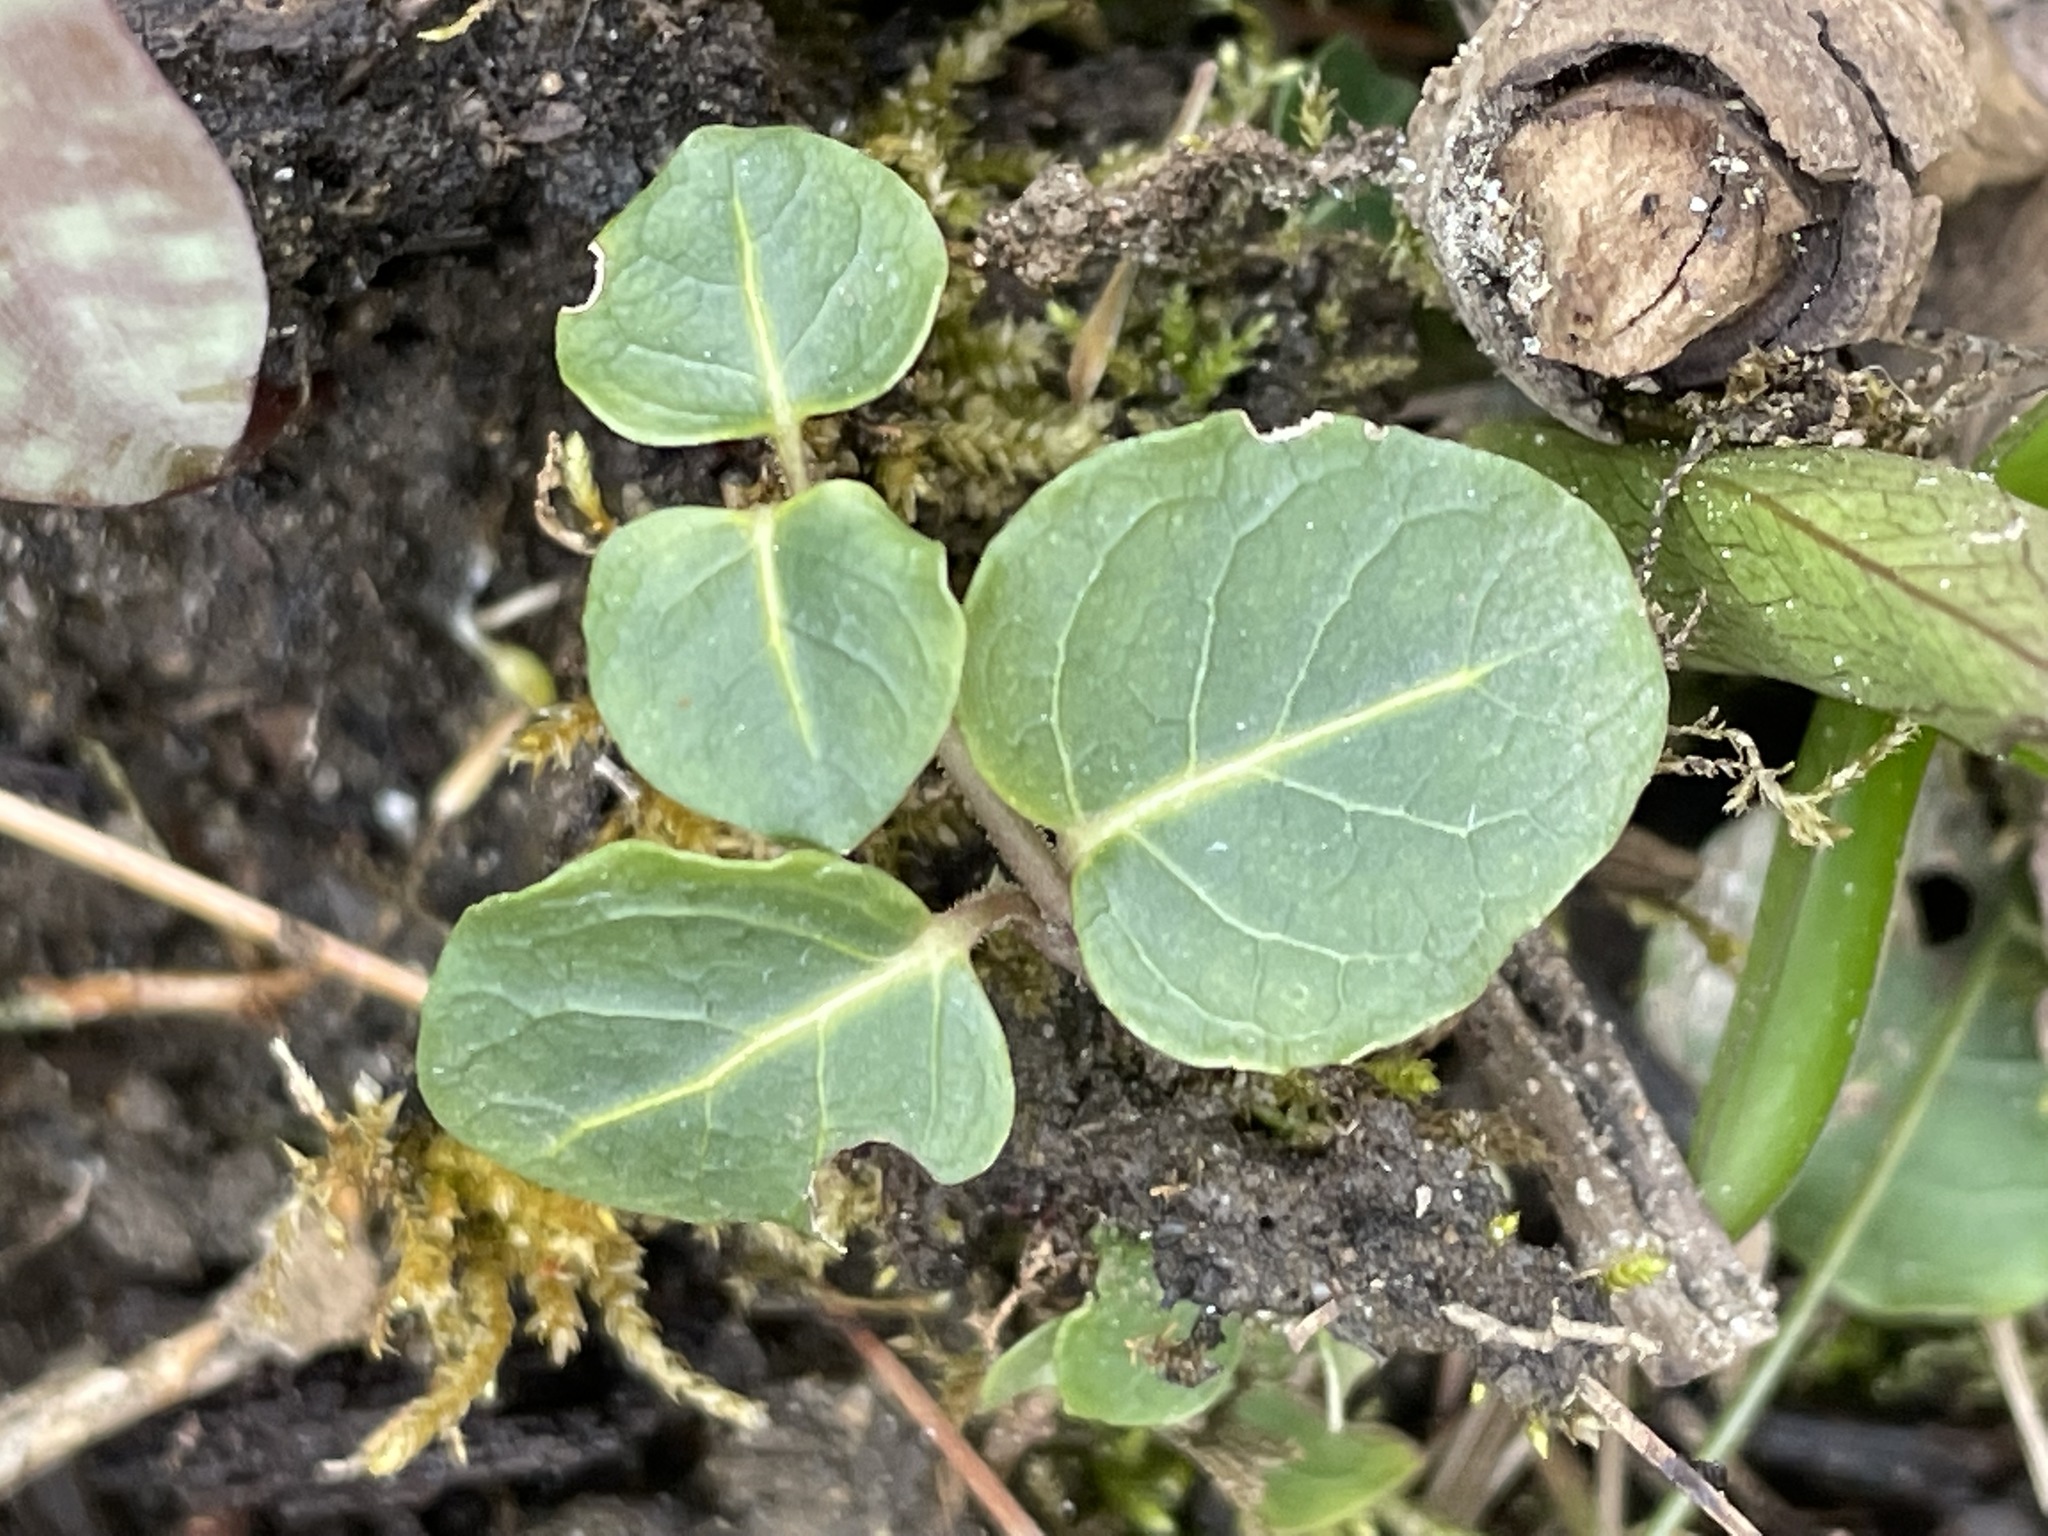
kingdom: Plantae
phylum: Tracheophyta
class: Magnoliopsida
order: Gentianales
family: Rubiaceae
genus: Mitchella
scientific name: Mitchella repens
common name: Partridge-berry
